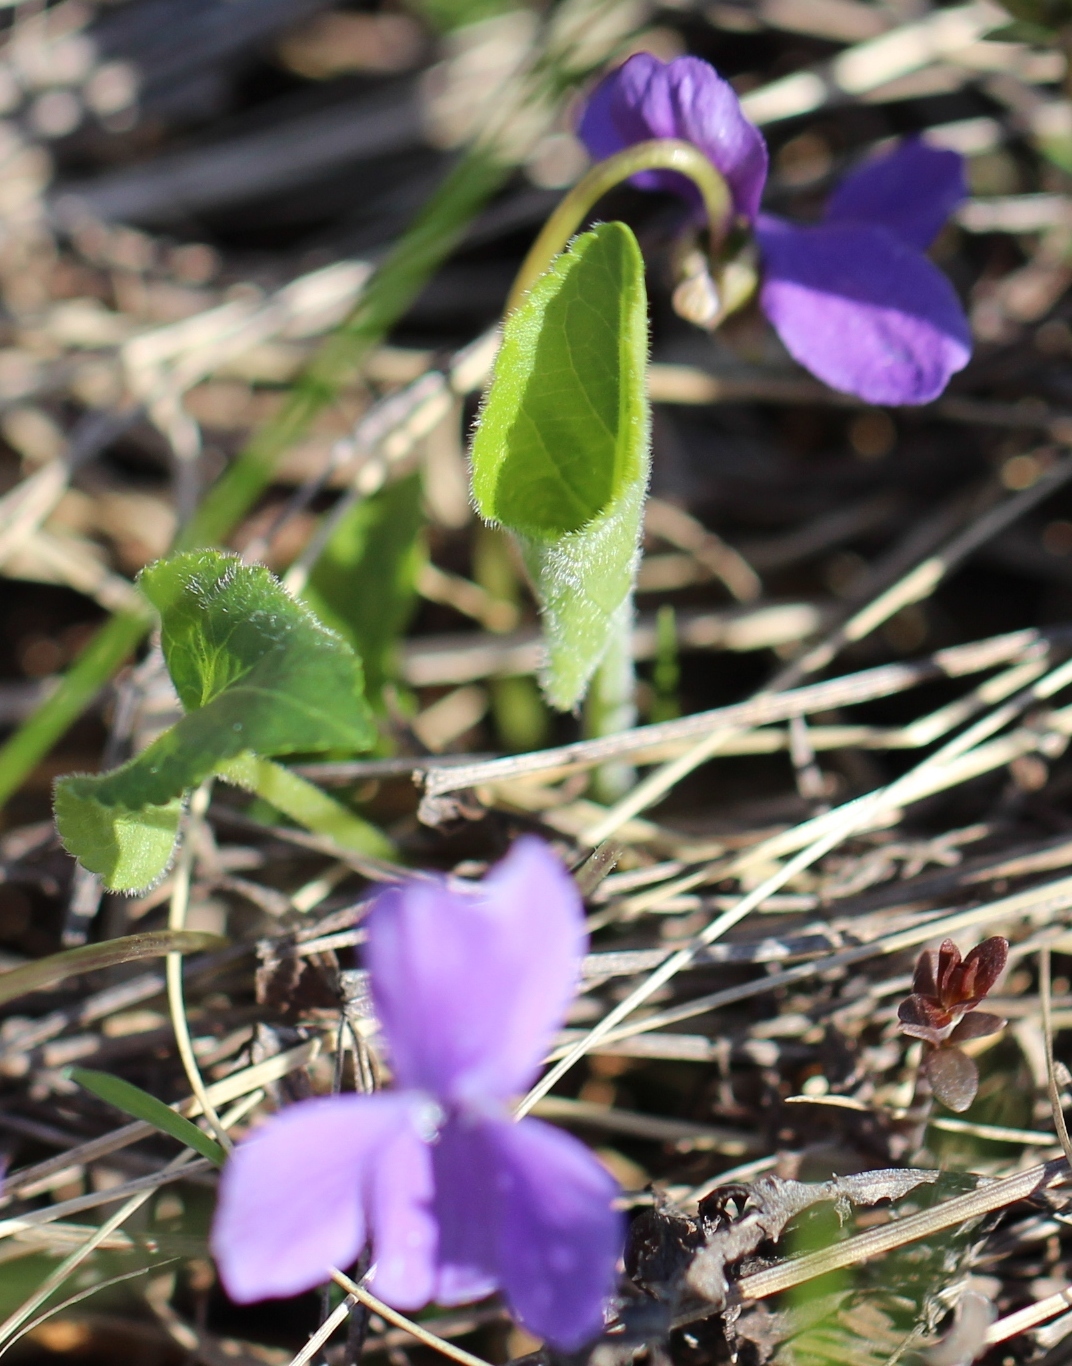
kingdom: Plantae
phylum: Tracheophyta
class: Magnoliopsida
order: Malpighiales
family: Violaceae
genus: Viola
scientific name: Viola hirta
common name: Hairy violet
